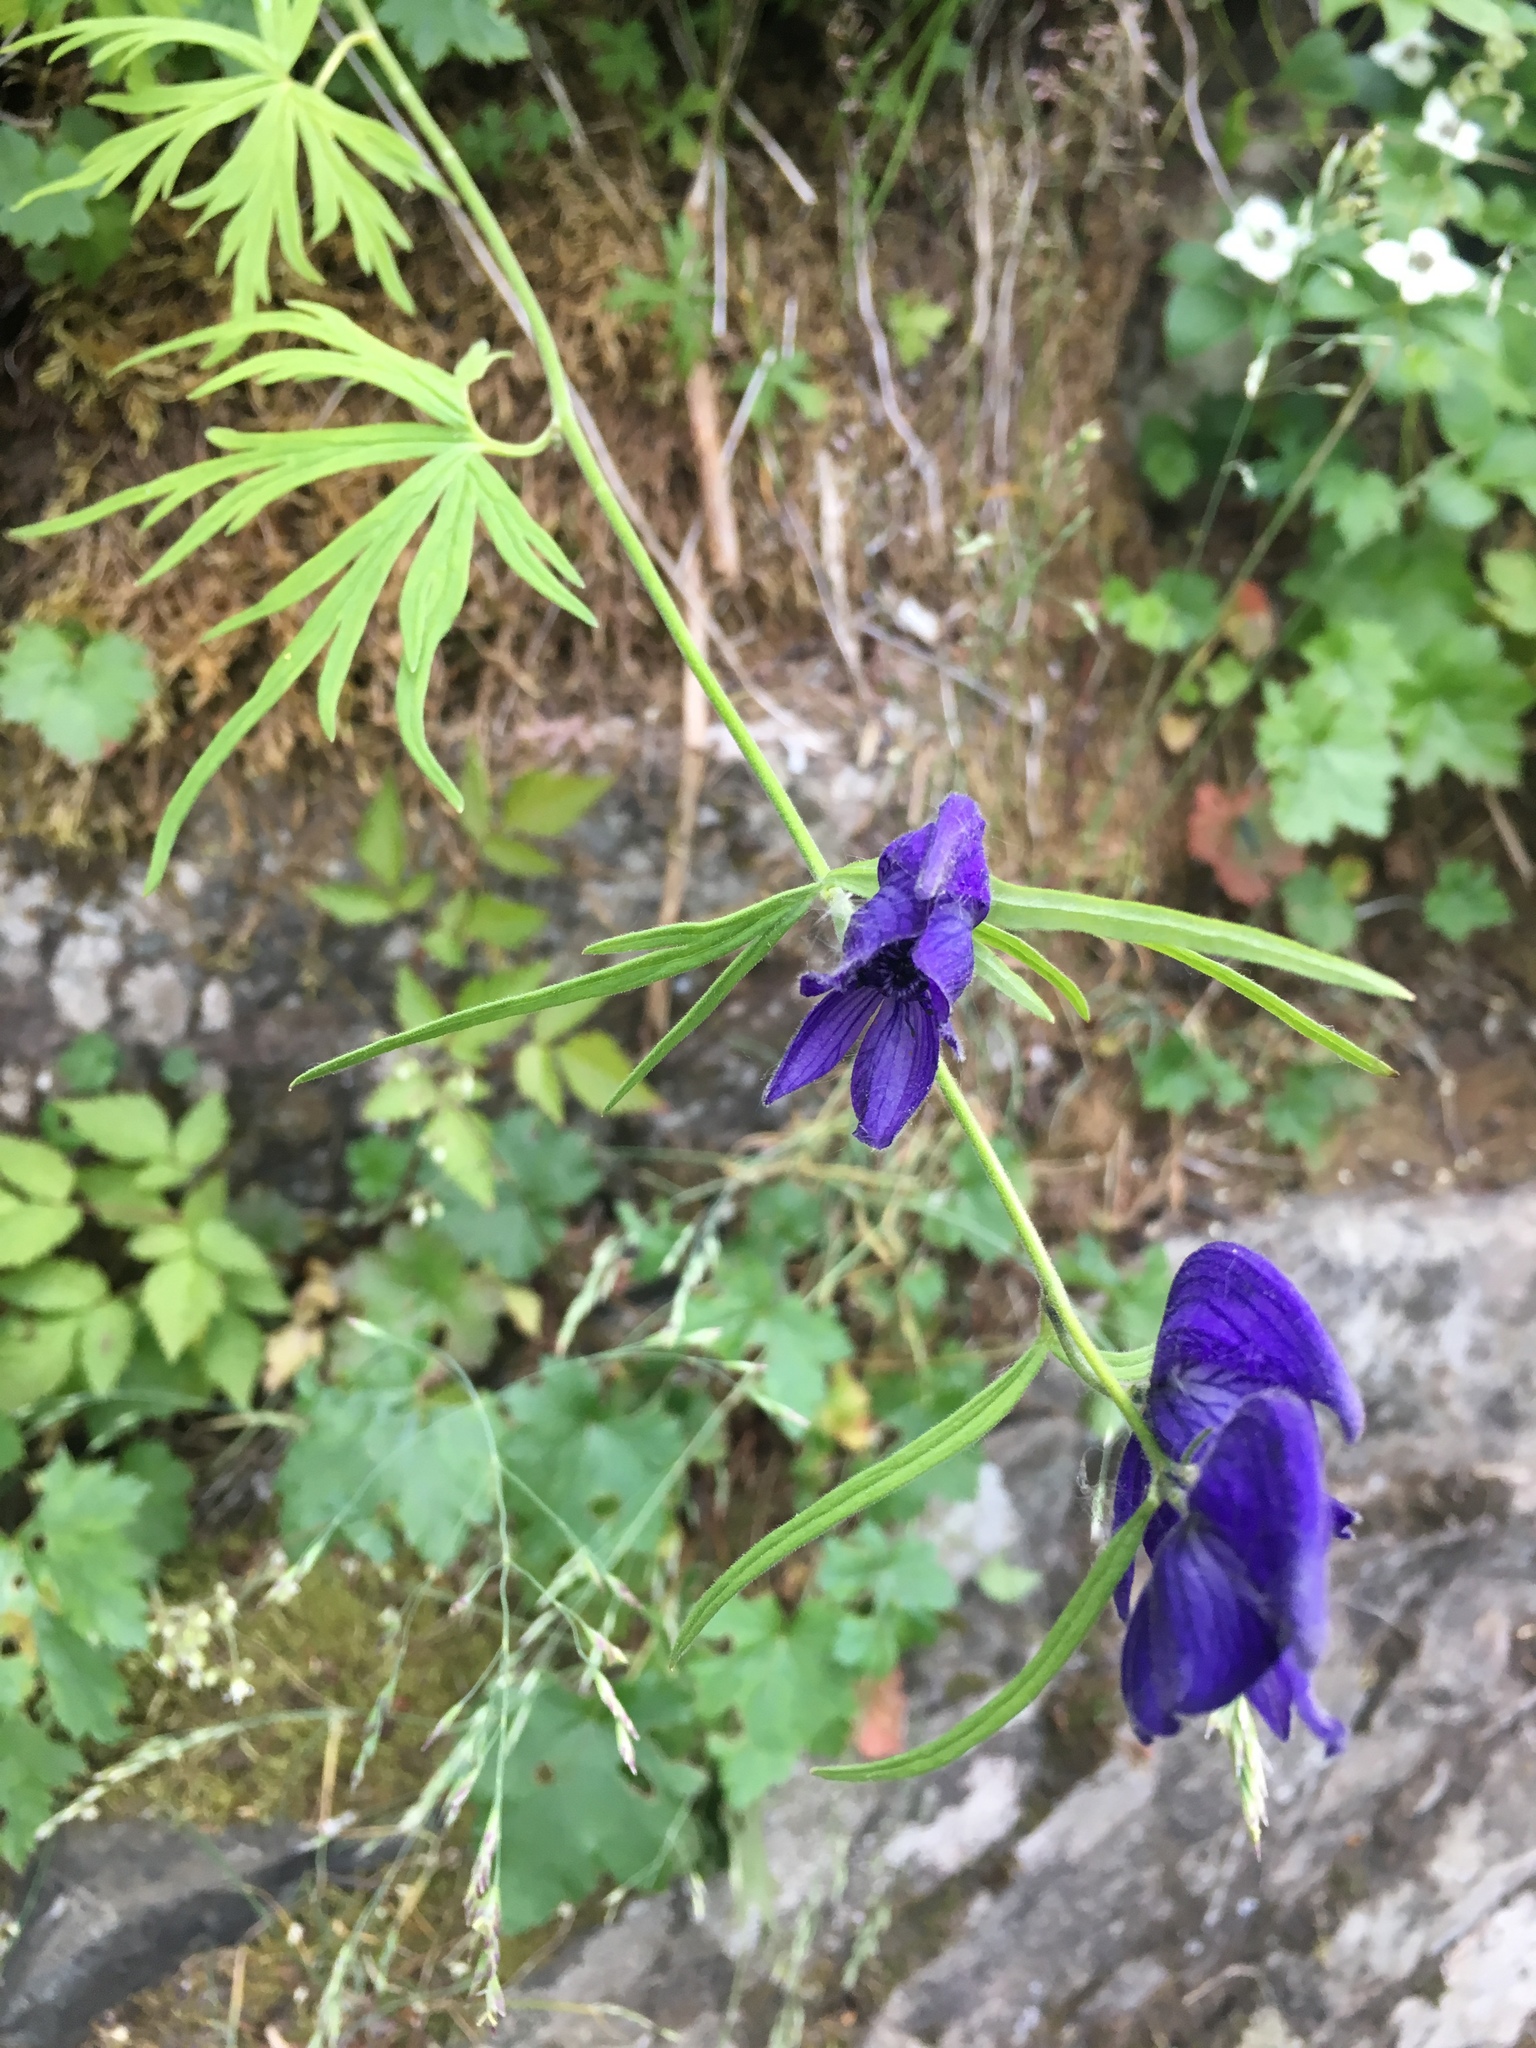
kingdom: Plantae
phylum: Tracheophyta
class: Magnoliopsida
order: Ranunculales
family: Ranunculaceae
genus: Aconitum
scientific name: Aconitum delphiniifolium
